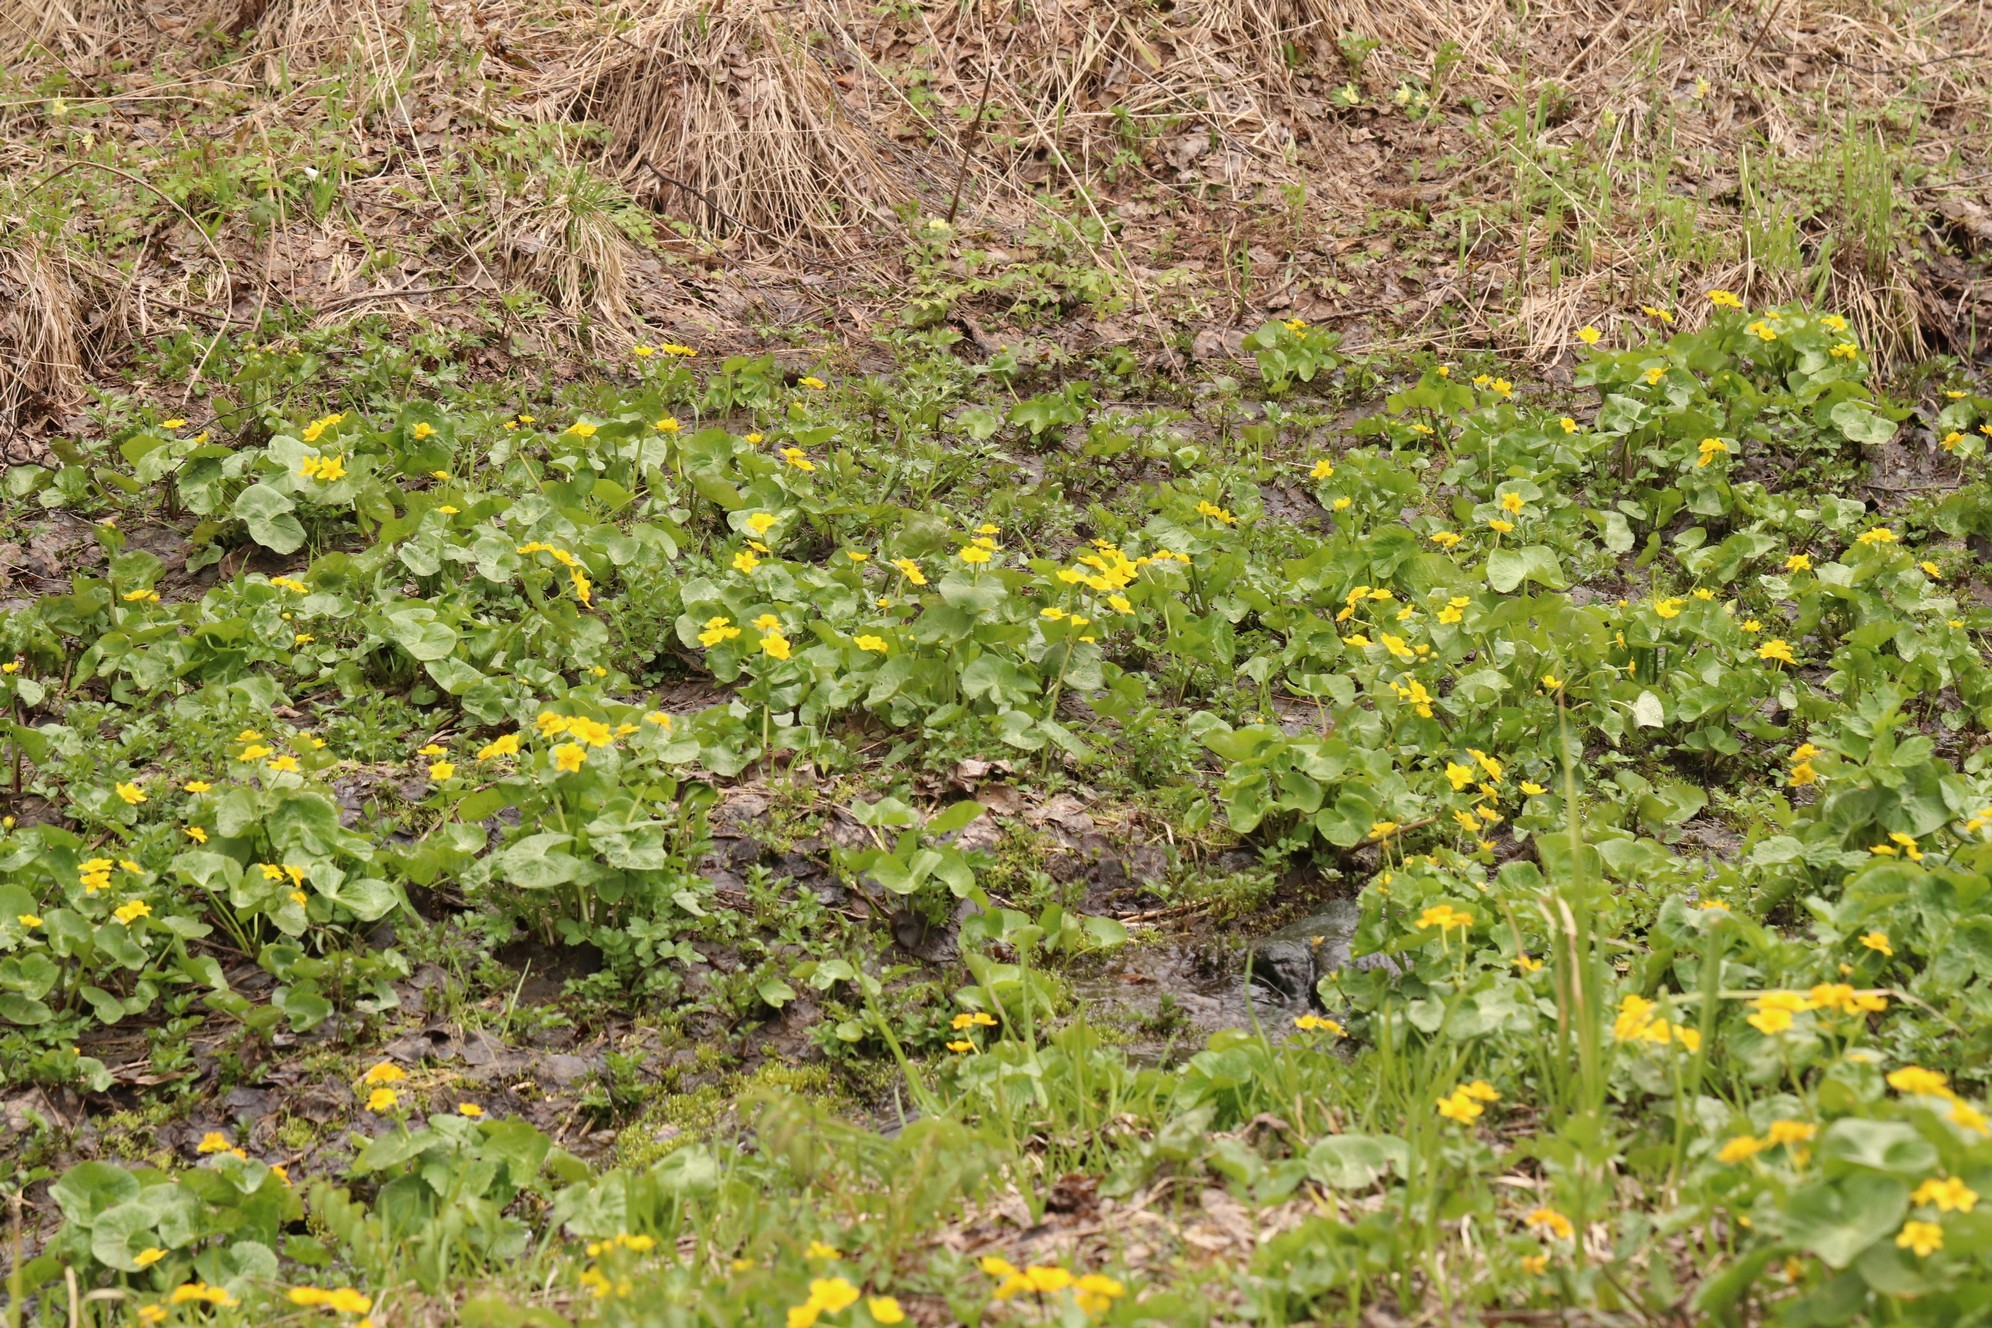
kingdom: Plantae
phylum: Tracheophyta
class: Magnoliopsida
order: Ranunculales
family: Ranunculaceae
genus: Caltha
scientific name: Caltha palustris
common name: Marsh marigold
